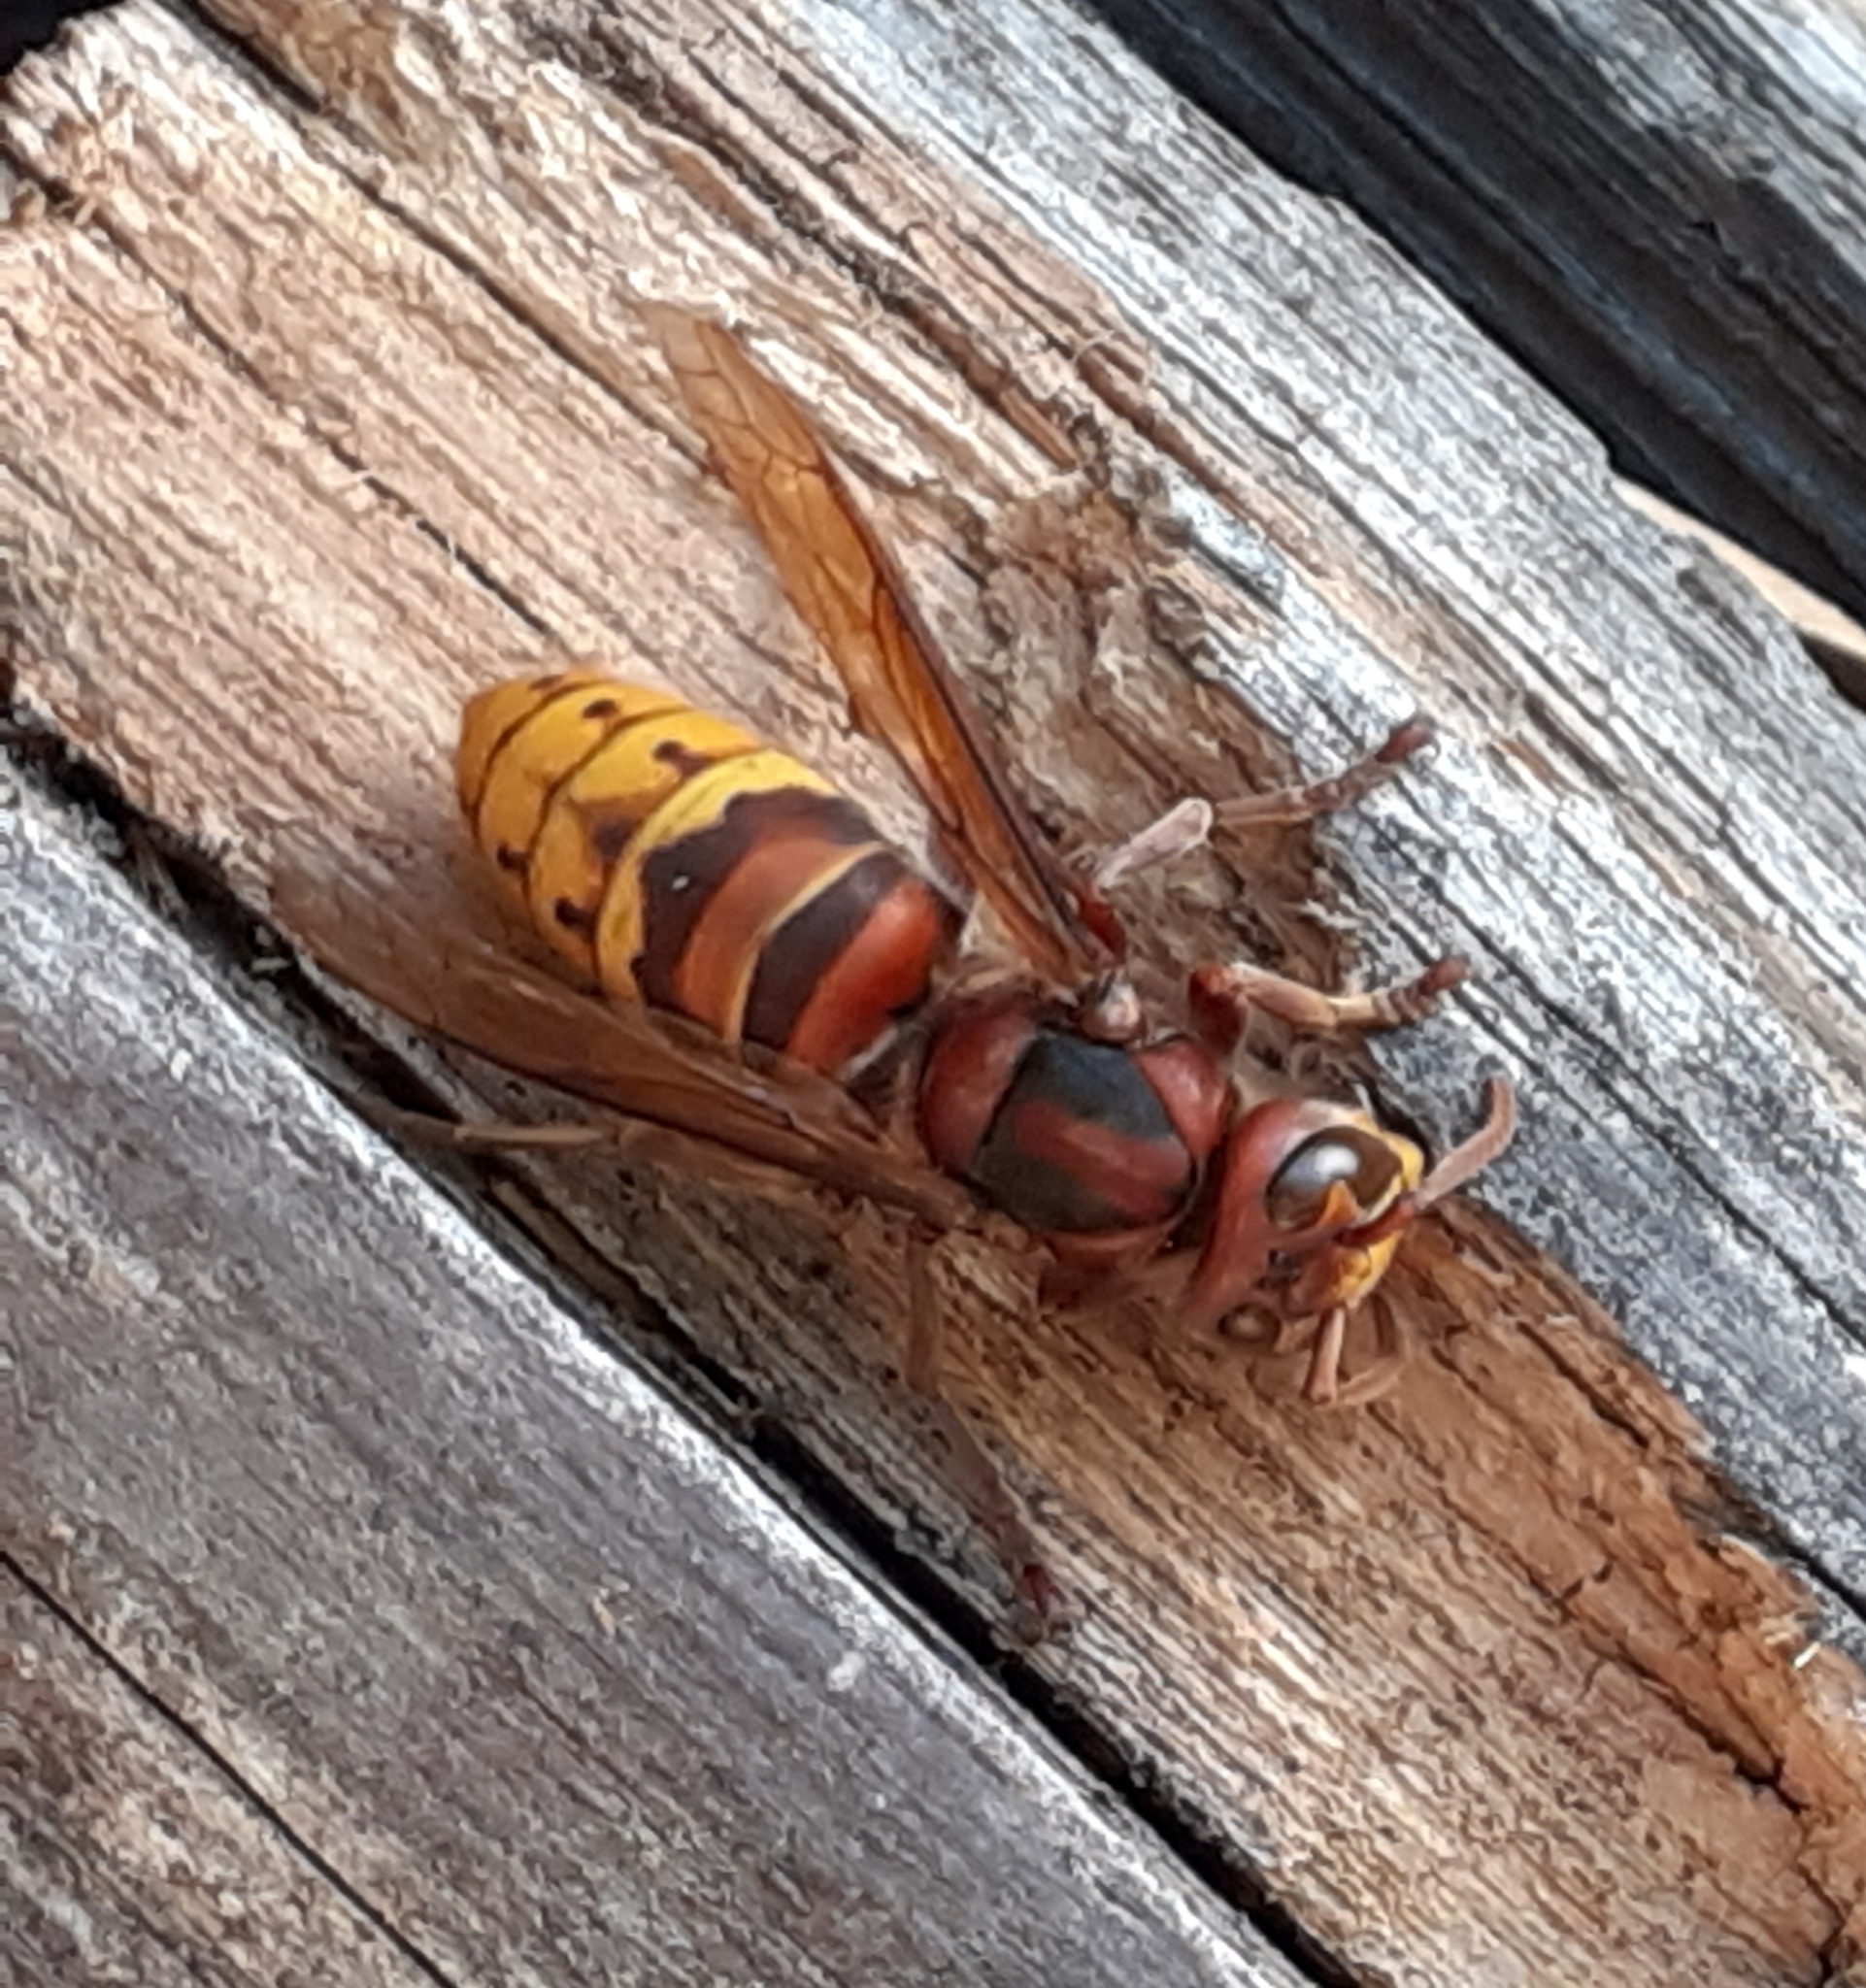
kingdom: Animalia
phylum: Arthropoda
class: Insecta
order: Hymenoptera
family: Vespidae
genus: Vespa
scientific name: Vespa crabro
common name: Hornet
